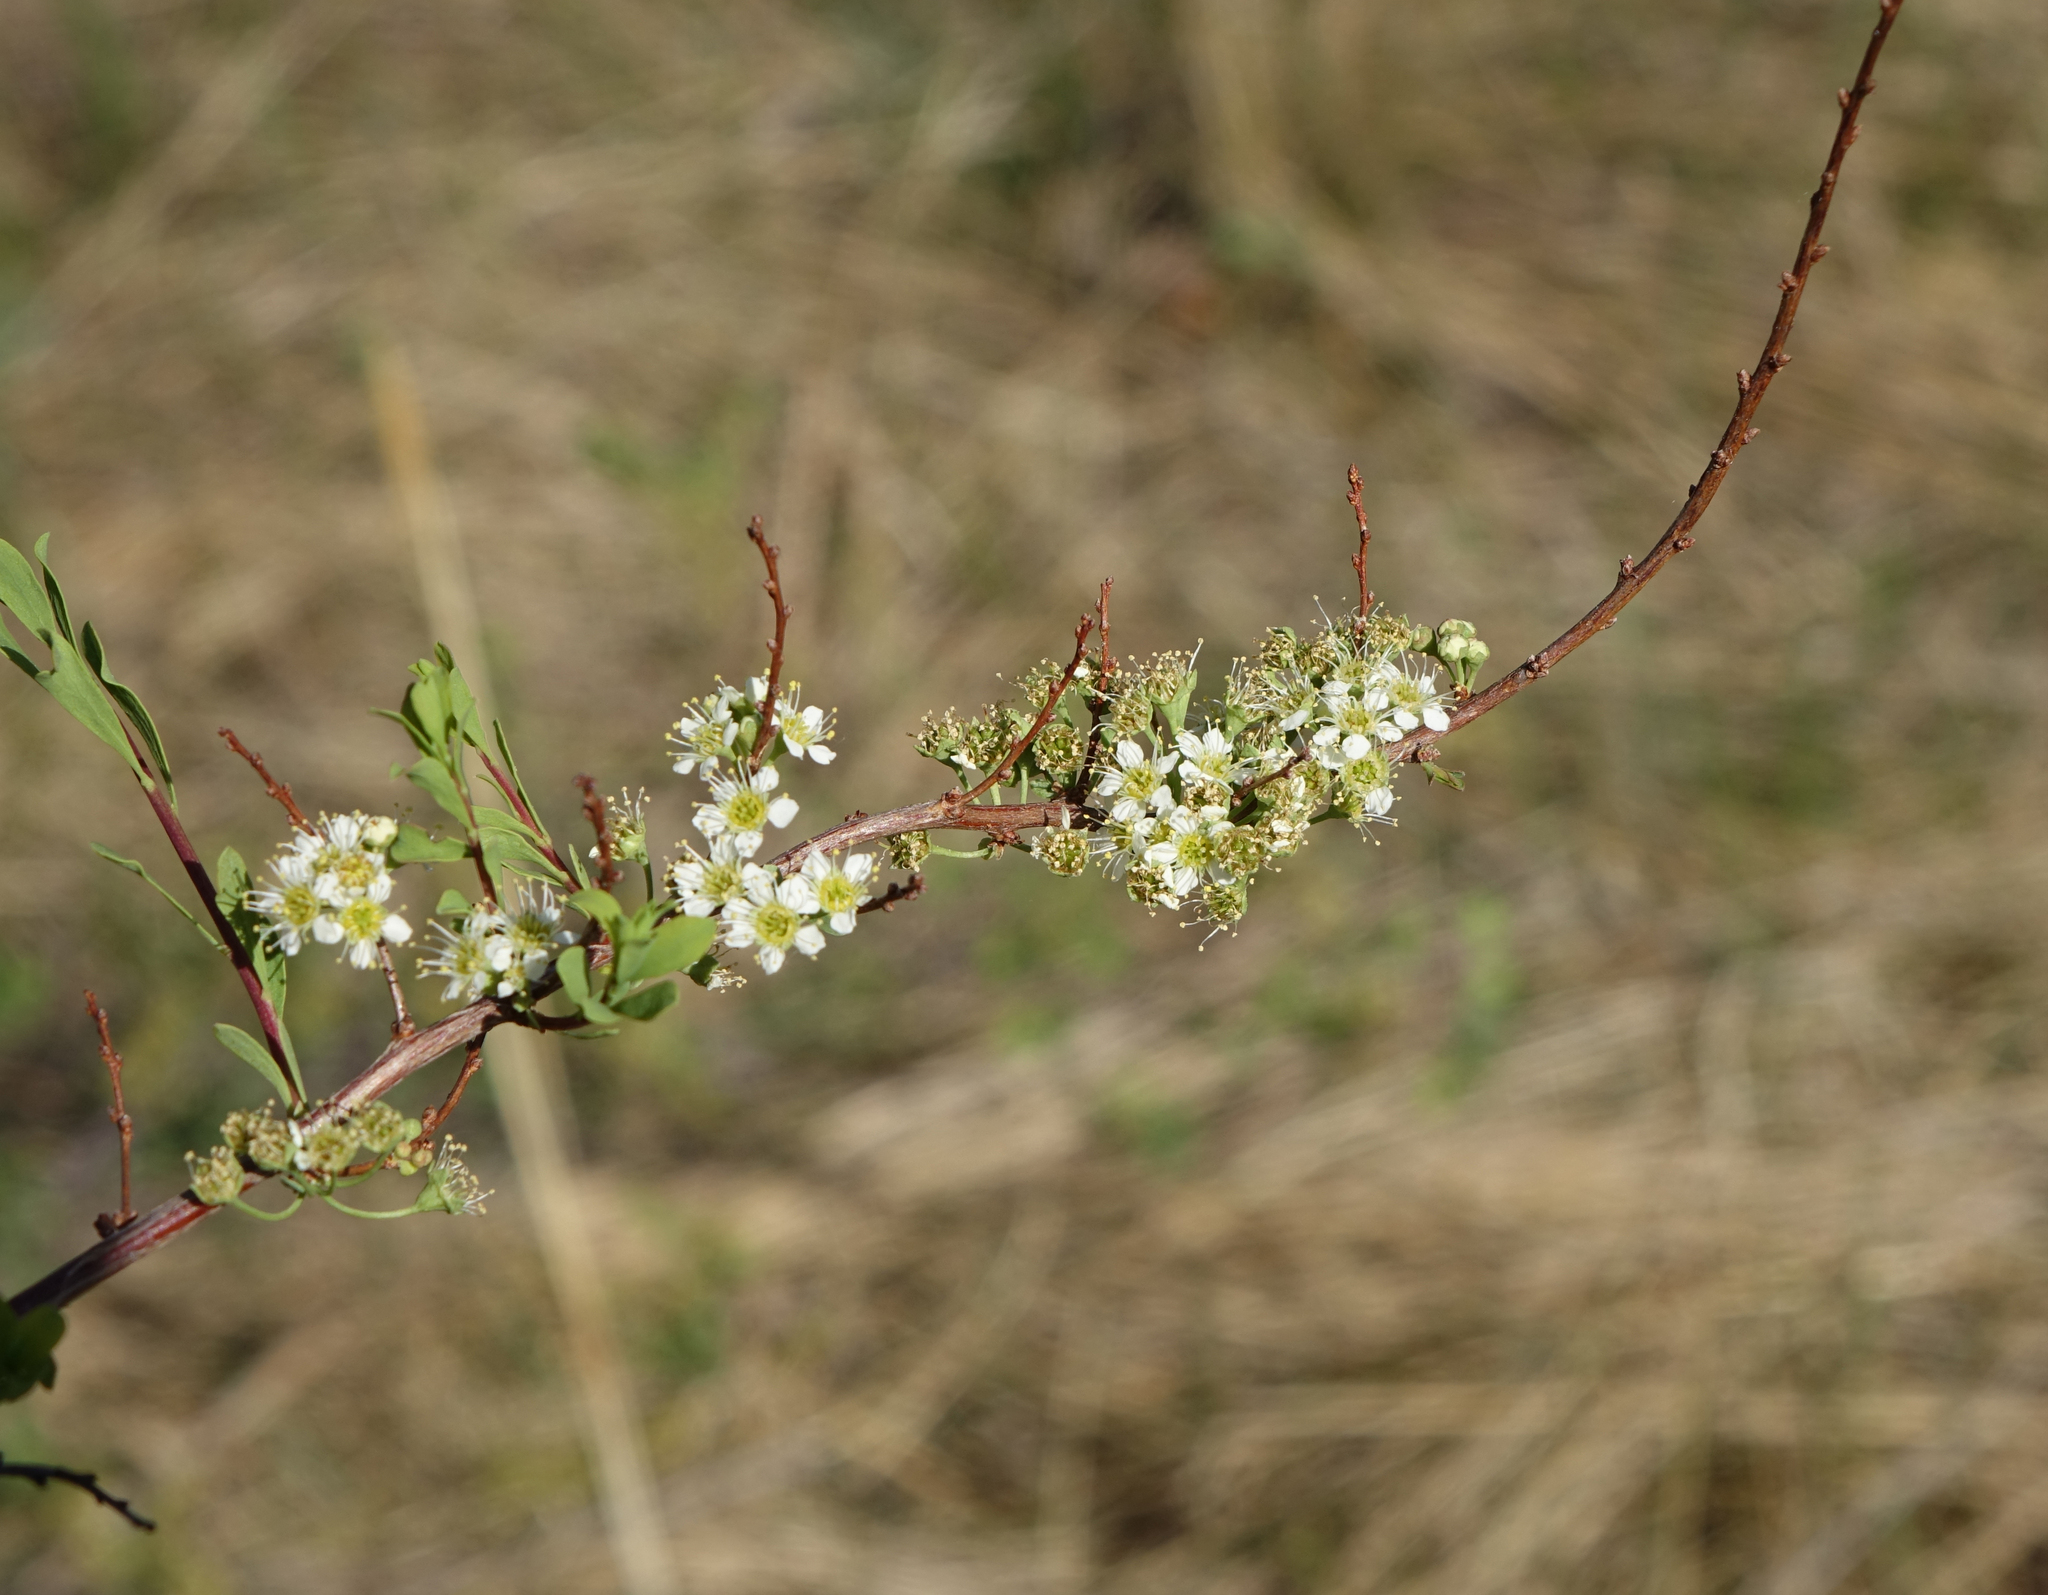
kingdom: Plantae
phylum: Tracheophyta
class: Magnoliopsida
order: Rosales
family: Rosaceae
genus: Spiraea
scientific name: Spiraea hypericifolia
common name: Iberian spirea
